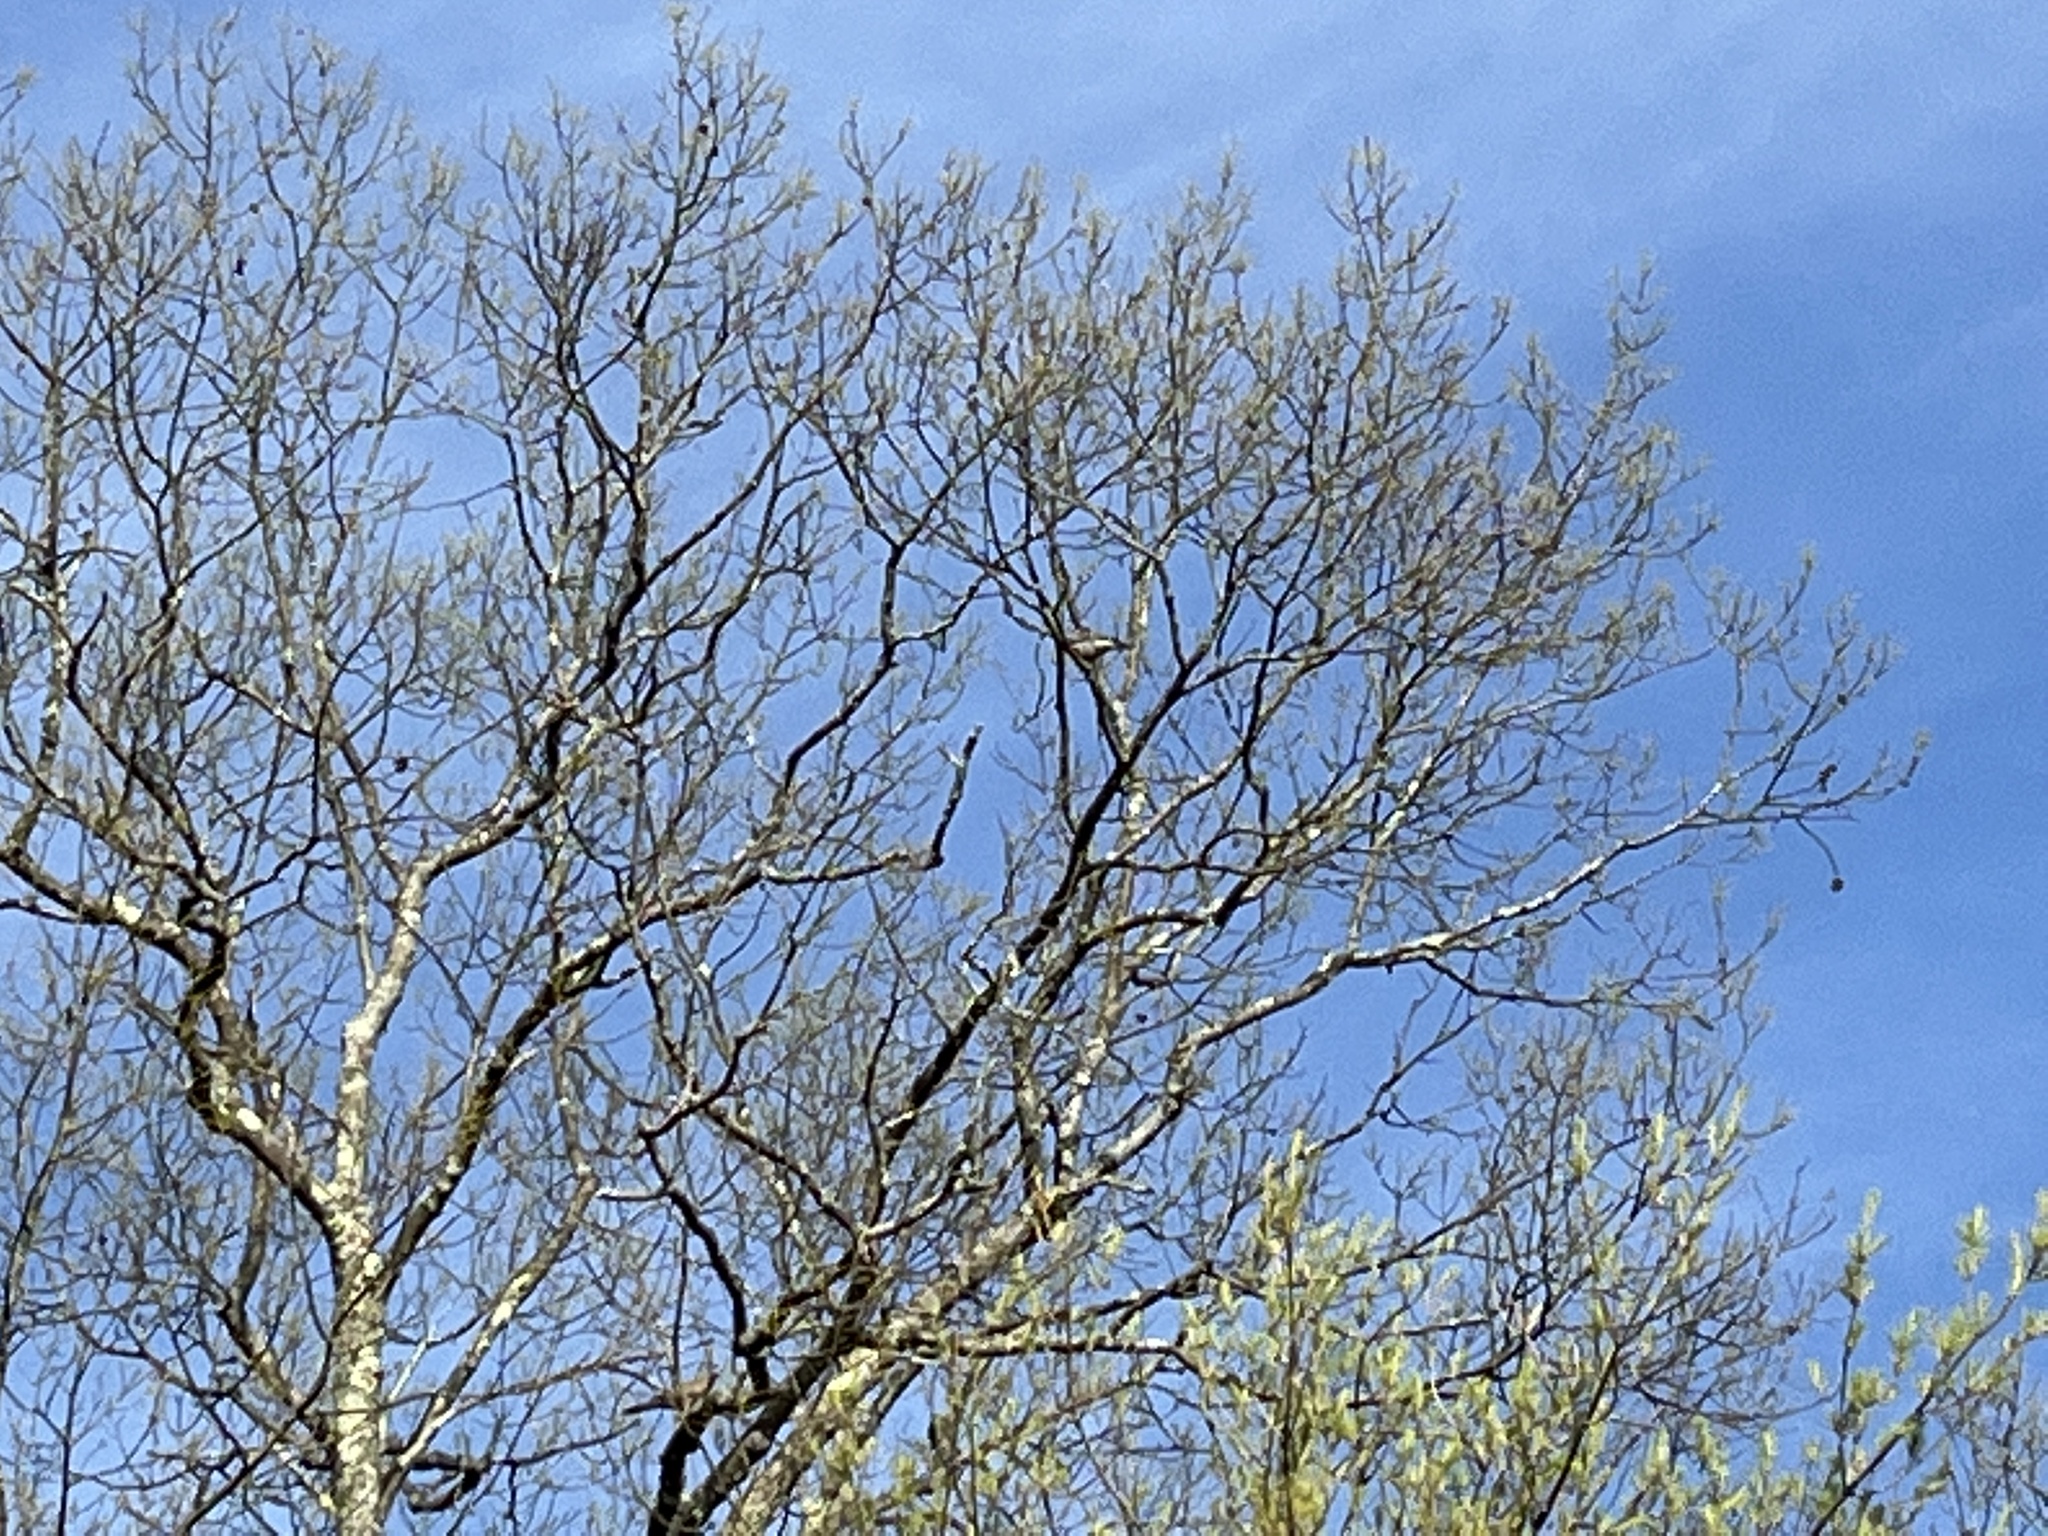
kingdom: Animalia
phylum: Chordata
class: Aves
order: Columbiformes
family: Columbidae
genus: Zenaida
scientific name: Zenaida macroura
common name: Mourning dove
